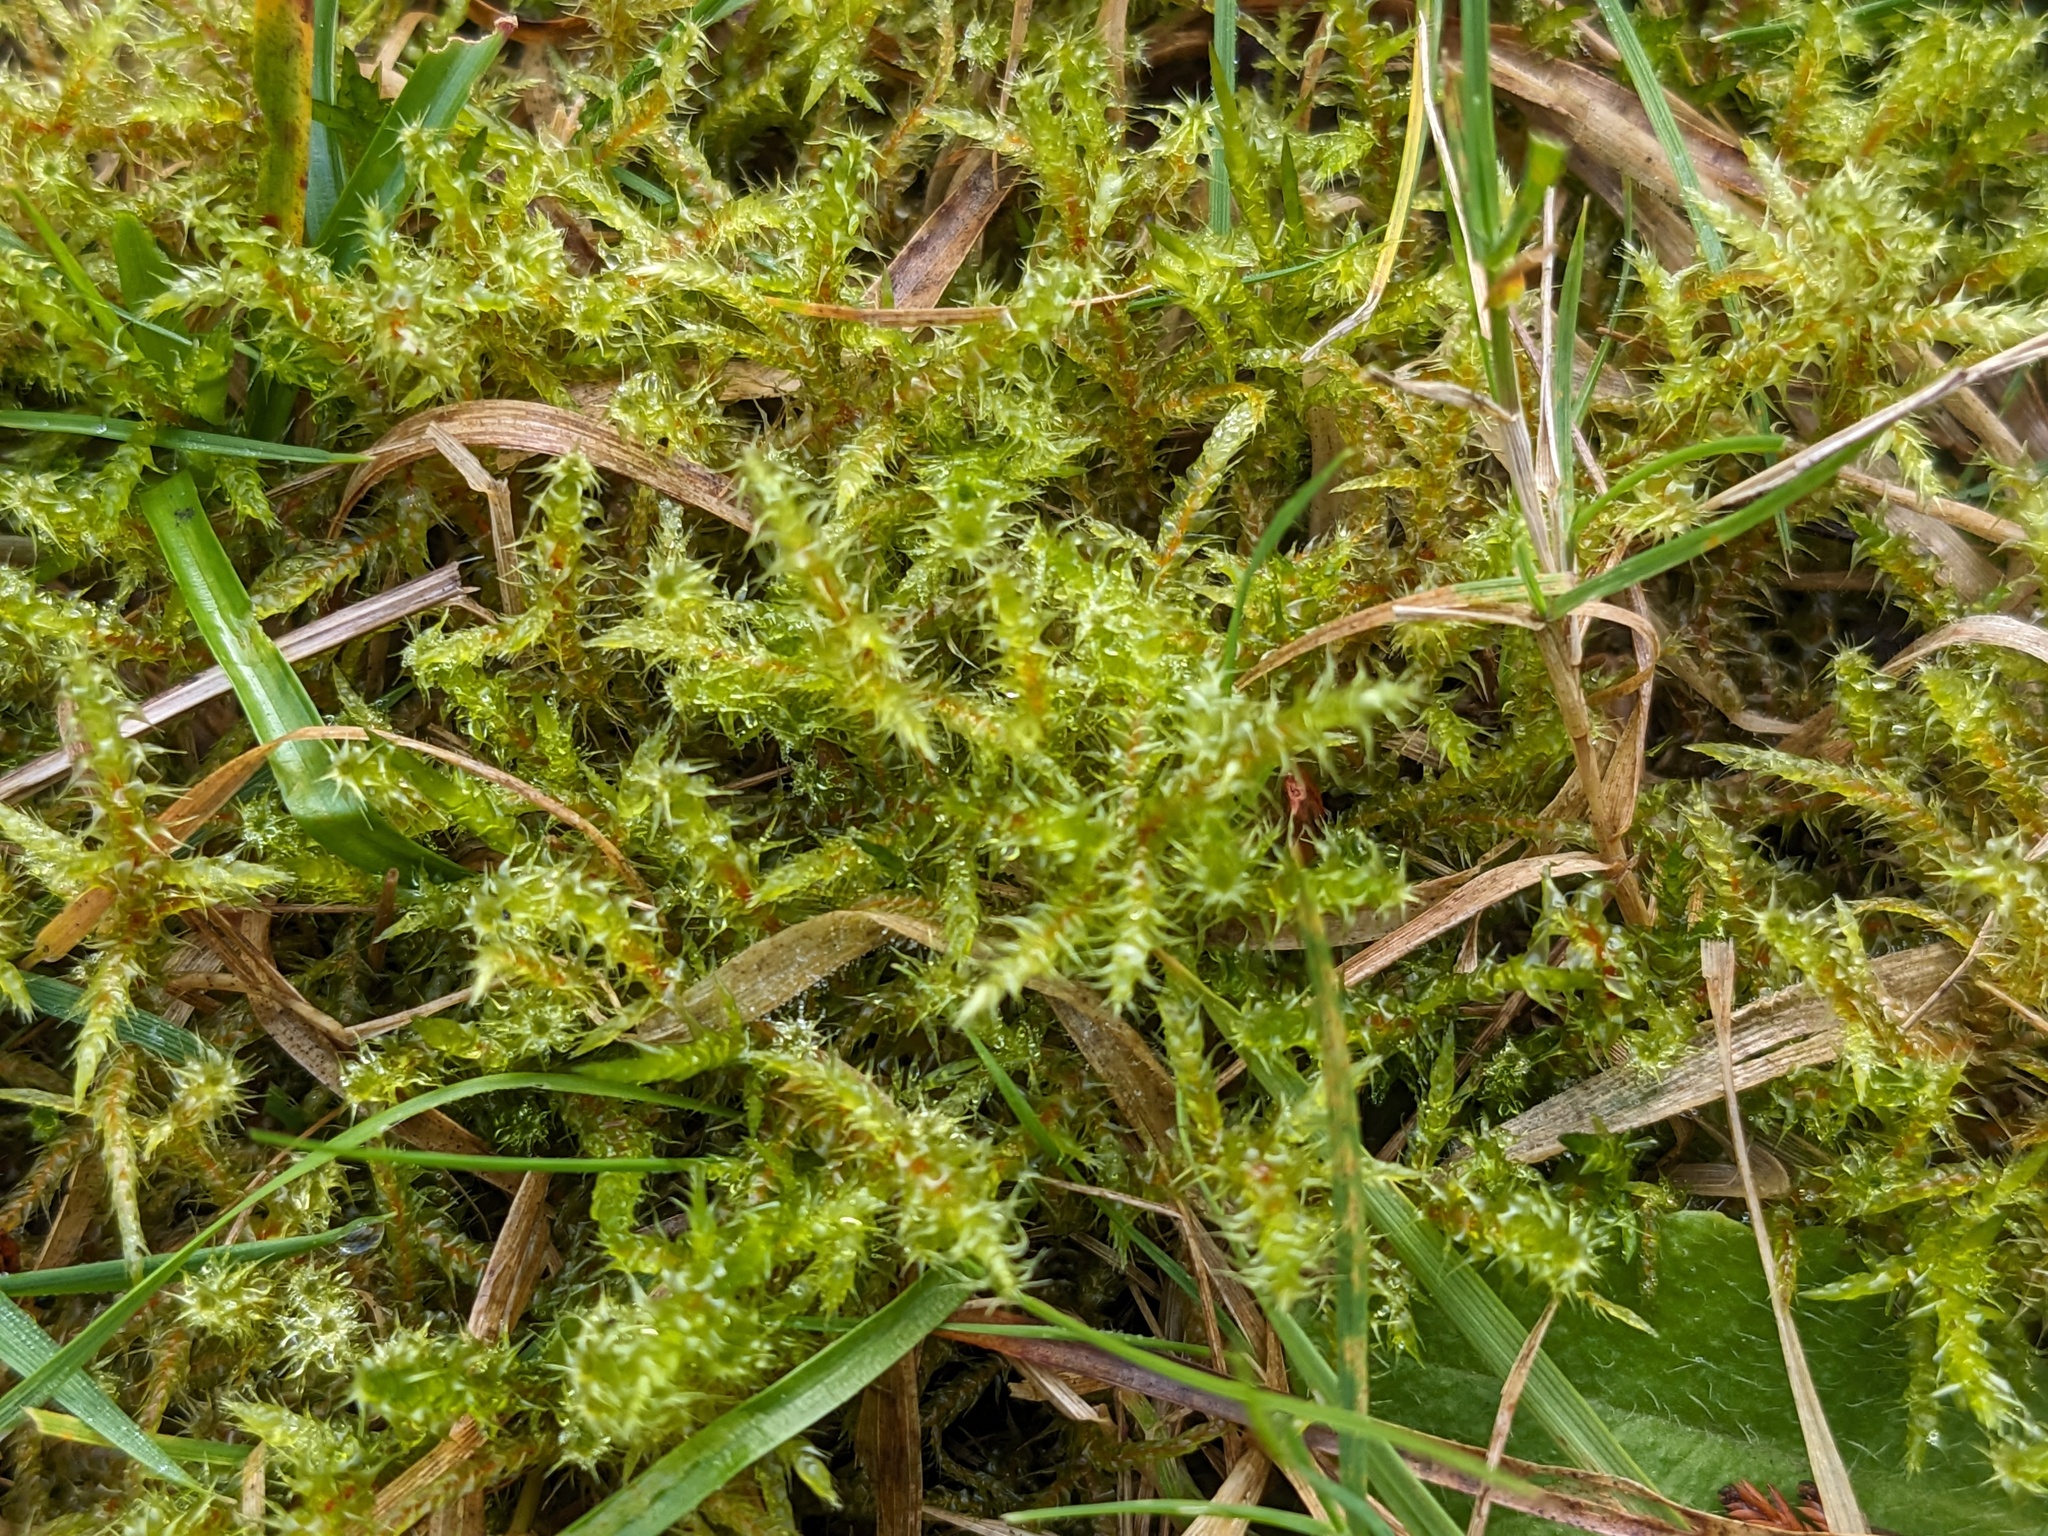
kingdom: Plantae
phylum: Bryophyta
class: Bryopsida
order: Hypnales
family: Hylocomiaceae
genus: Rhytidiadelphus
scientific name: Rhytidiadelphus squarrosus
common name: Springy turf-moss
